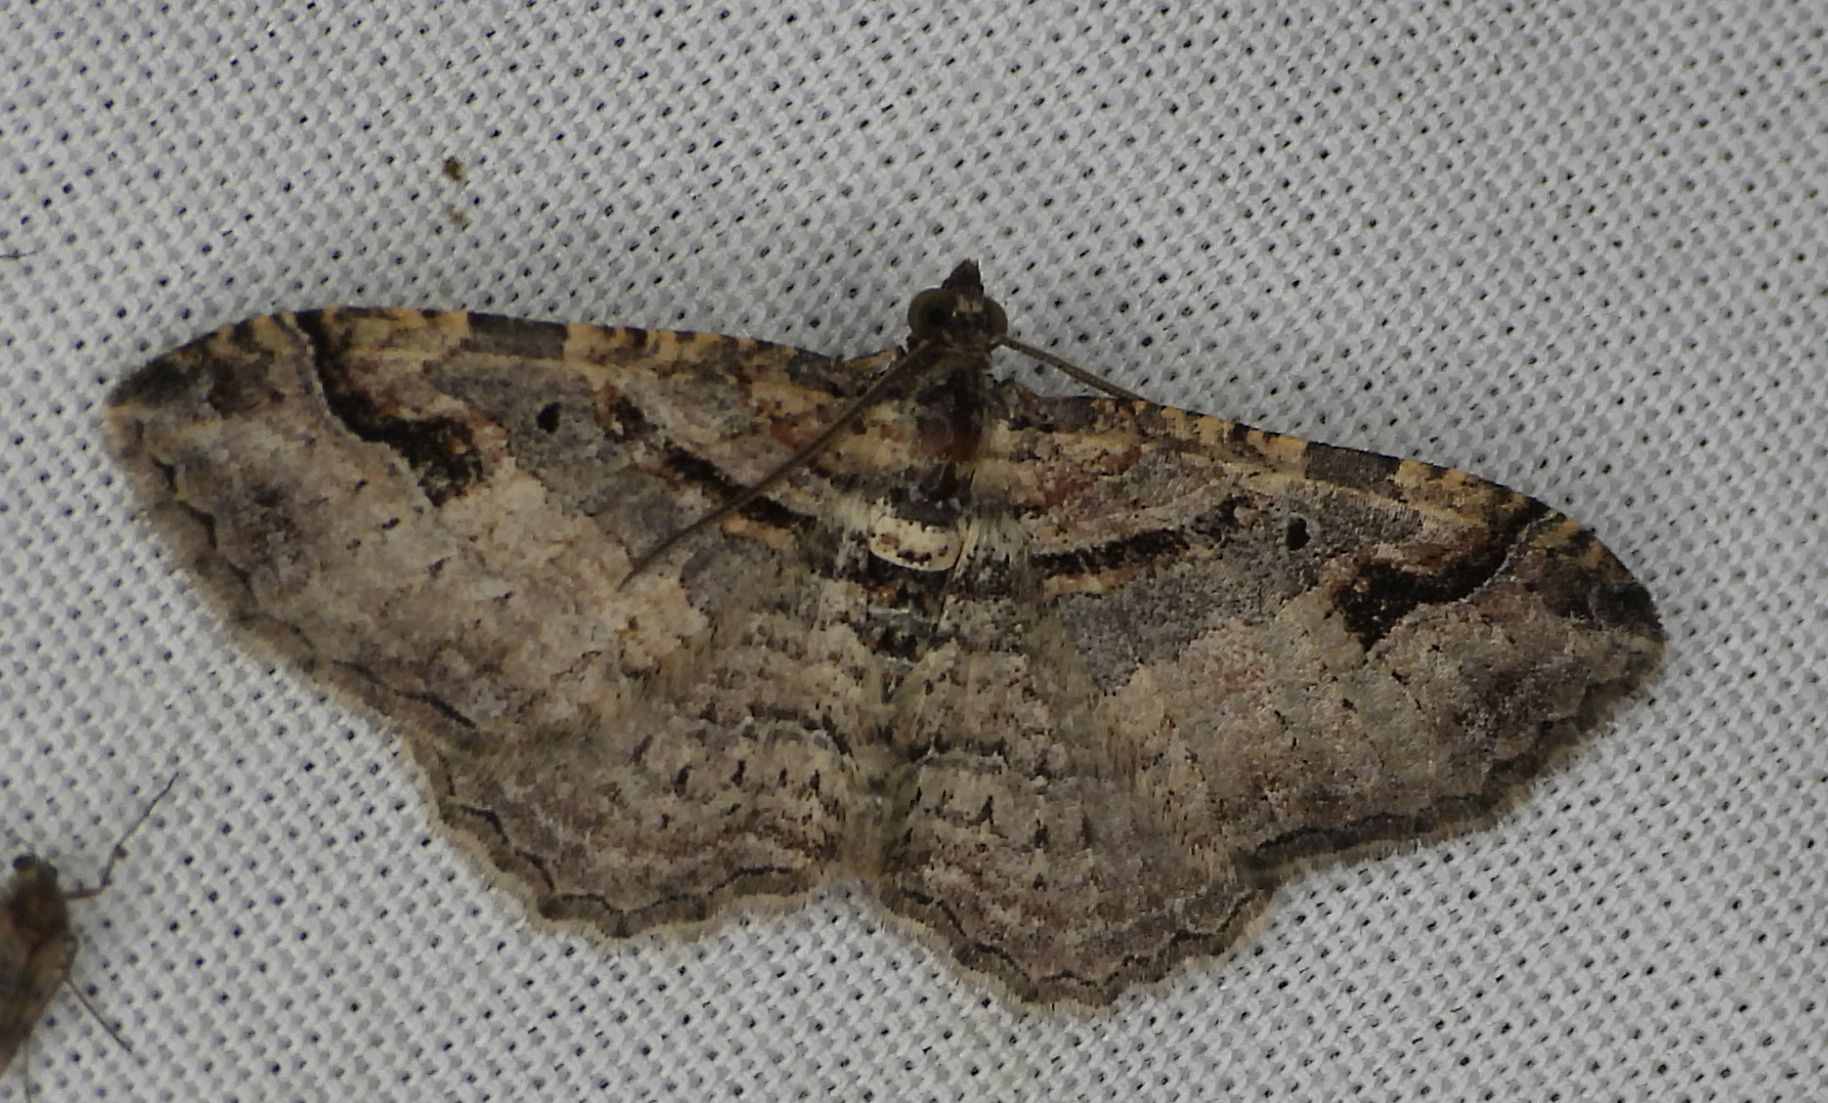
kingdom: Animalia
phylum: Arthropoda
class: Insecta
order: Lepidoptera
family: Geometridae
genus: Costaconvexa
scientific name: Costaconvexa centrostrigaria
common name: Bent-line carpet
